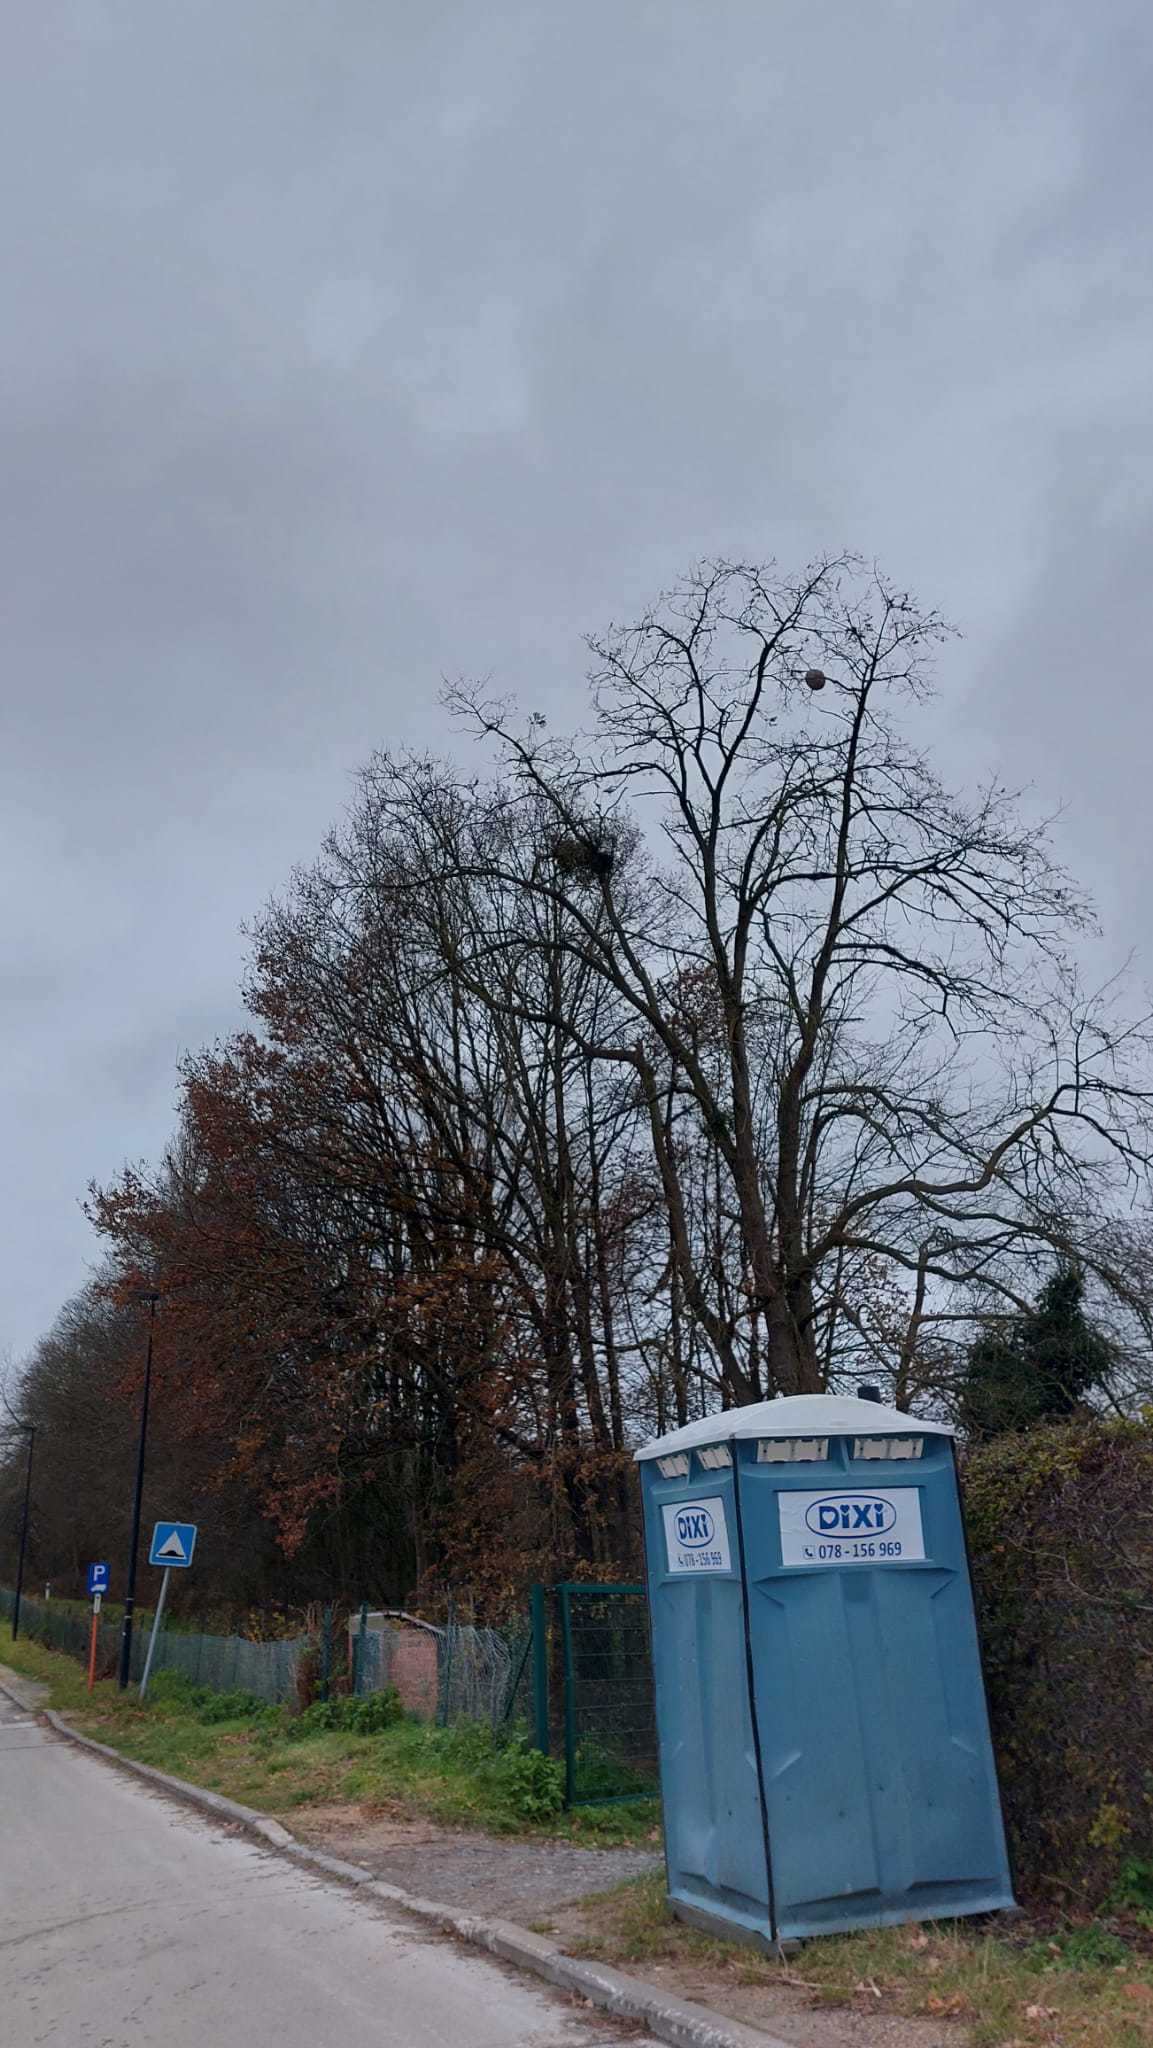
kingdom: Animalia
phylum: Arthropoda
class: Insecta
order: Hymenoptera
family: Vespidae
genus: Vespa
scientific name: Vespa velutina
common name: Asian hornet
